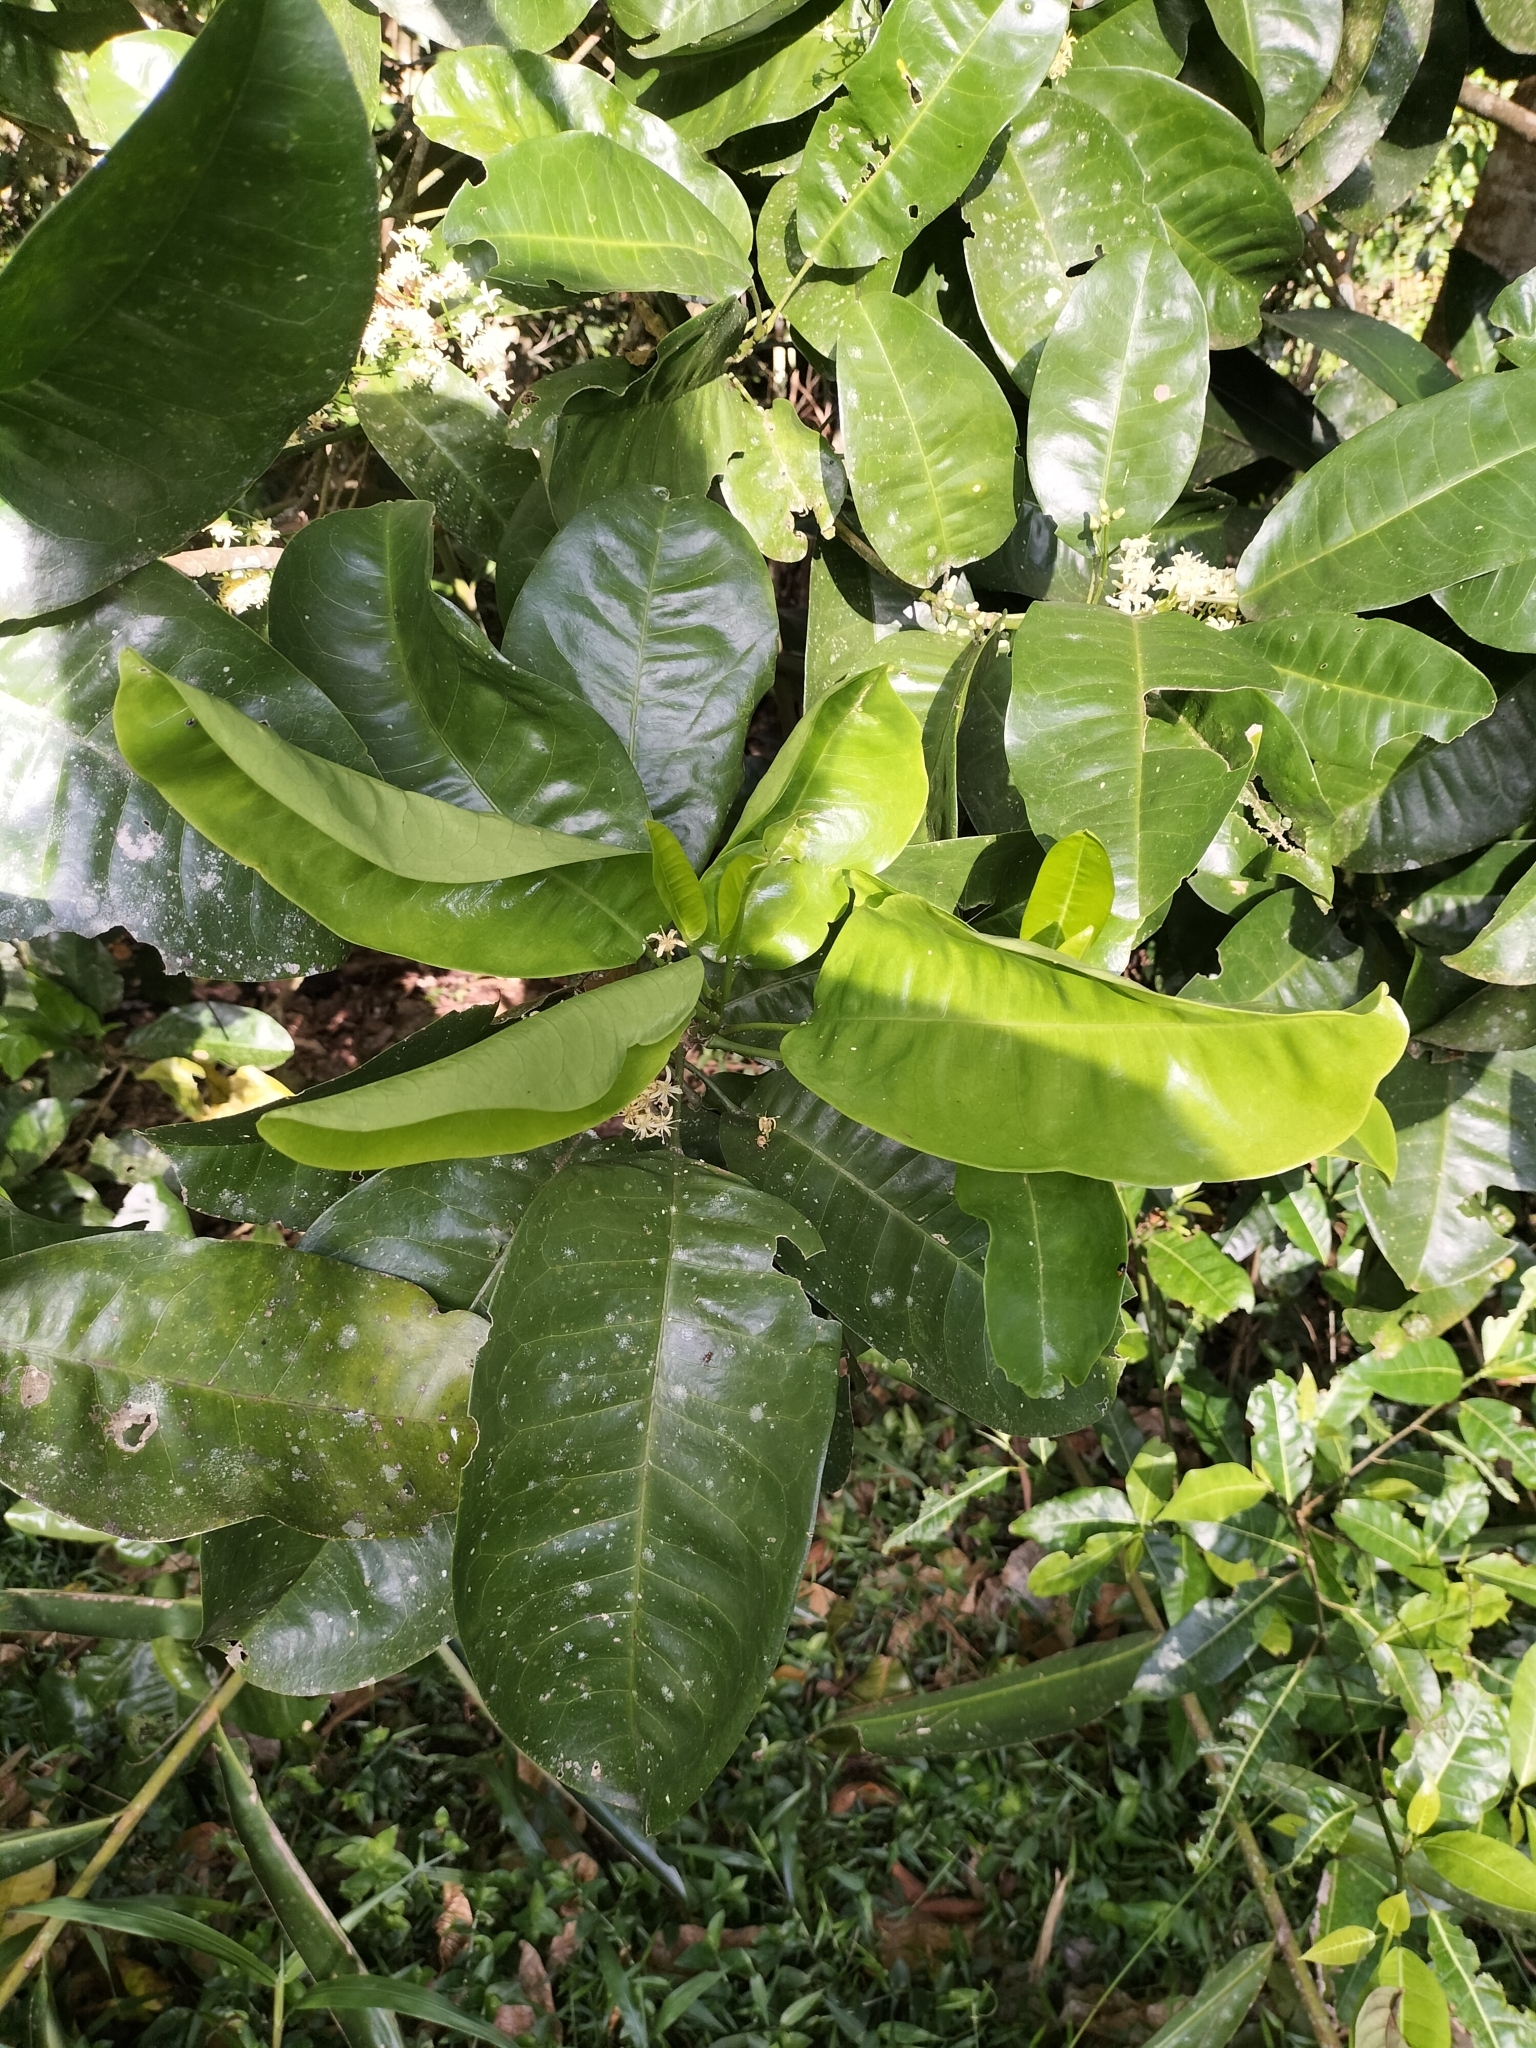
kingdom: Plantae
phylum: Tracheophyta
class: Magnoliopsida
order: Sapindales
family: Rutaceae
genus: Acronychia
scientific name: Acronychia acidula
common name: Lemon-aspen
